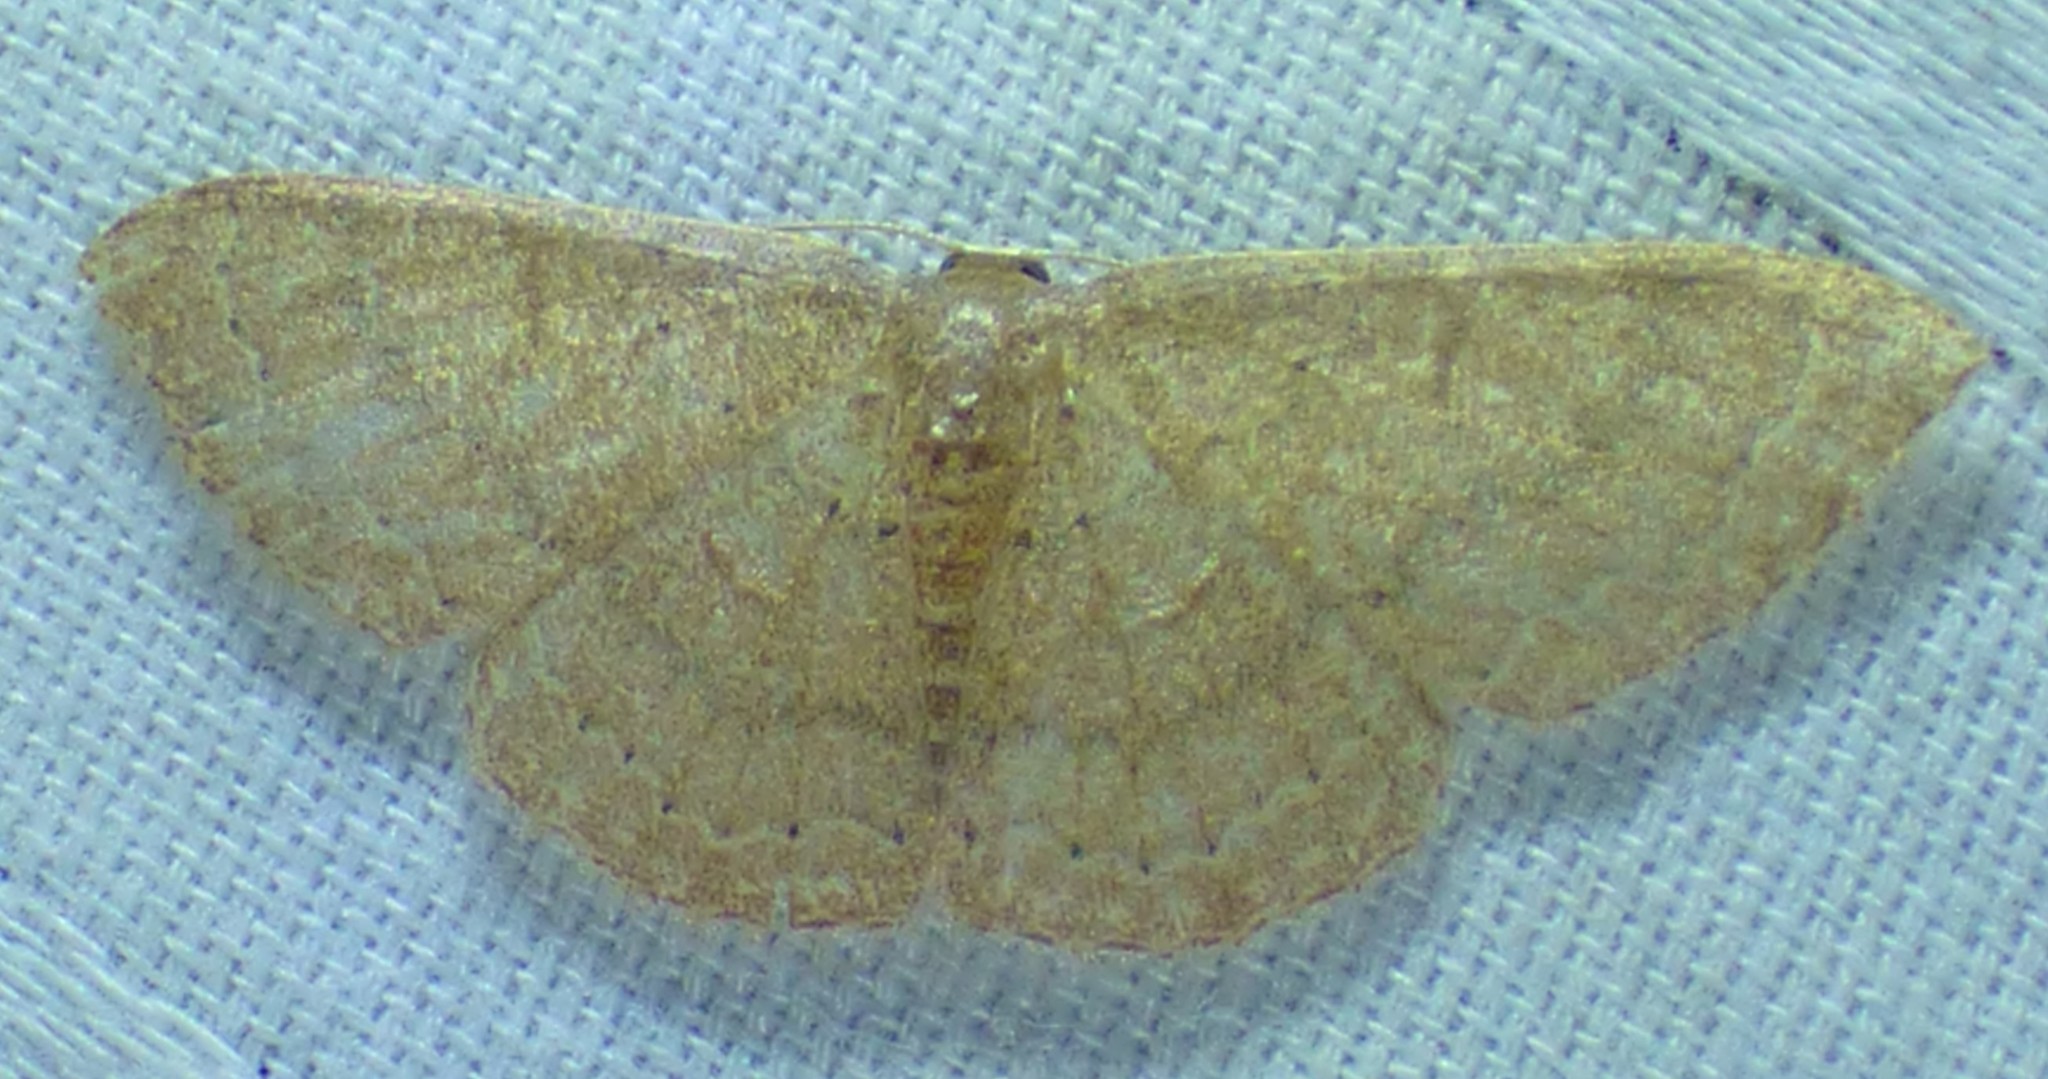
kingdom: Animalia
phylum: Arthropoda
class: Insecta
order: Lepidoptera
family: Geometridae
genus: Pleuroprucha
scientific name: Pleuroprucha insulsaria
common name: Common tan wave
